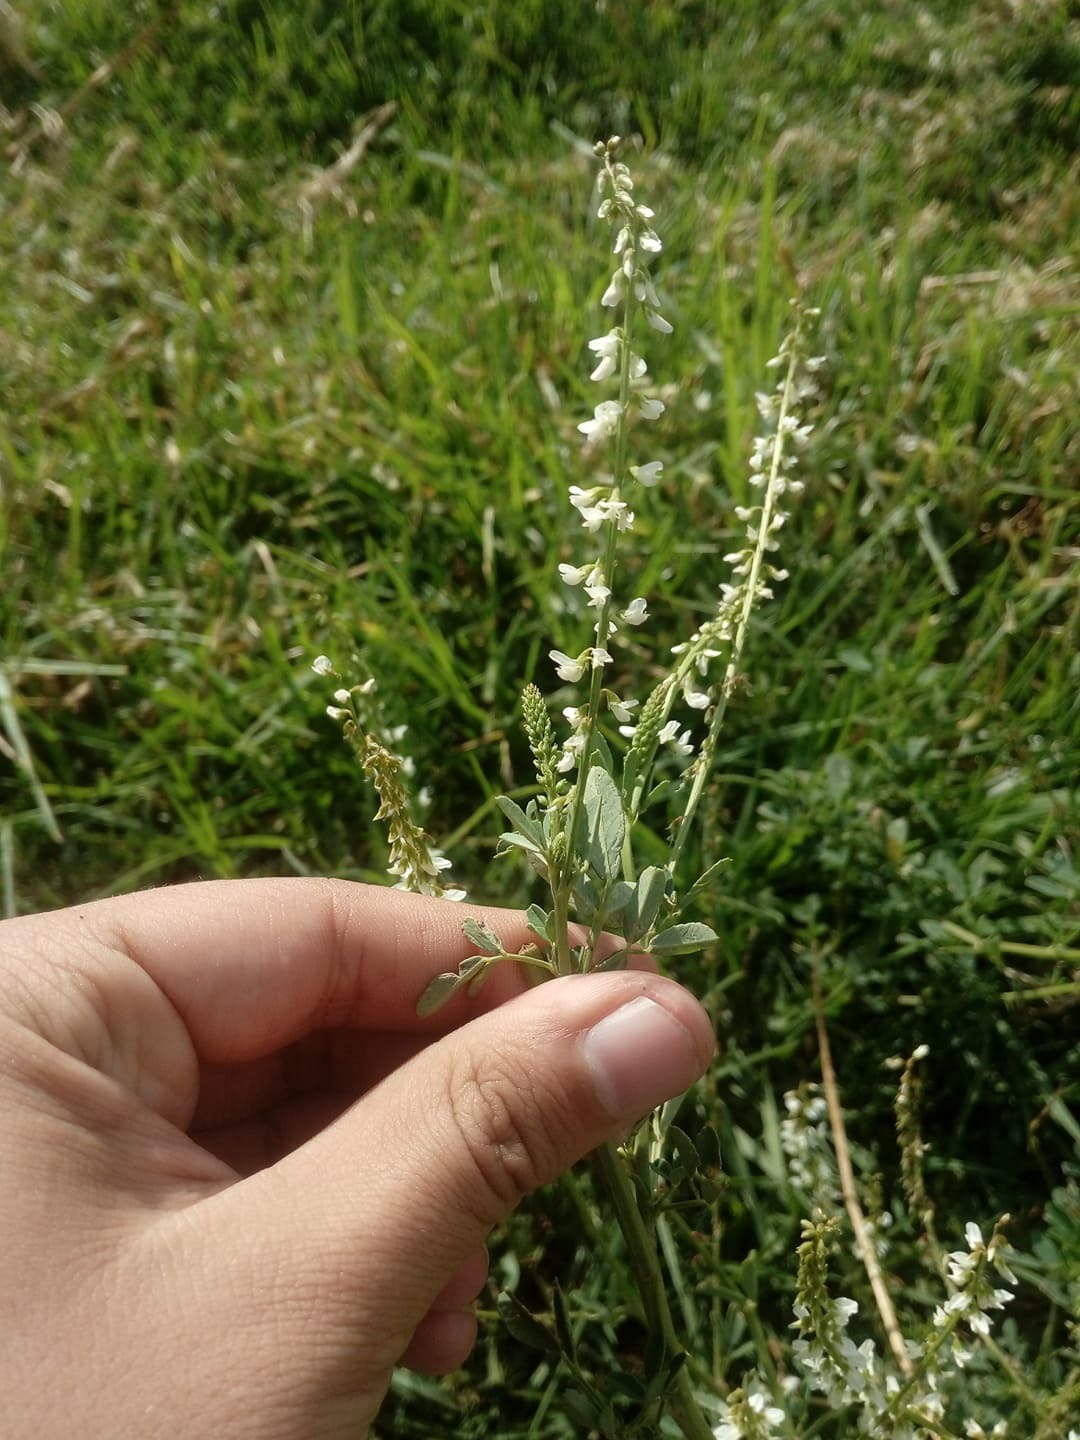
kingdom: Plantae
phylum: Tracheophyta
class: Magnoliopsida
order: Fabales
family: Fabaceae
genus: Melilotus
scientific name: Melilotus albus
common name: White melilot
